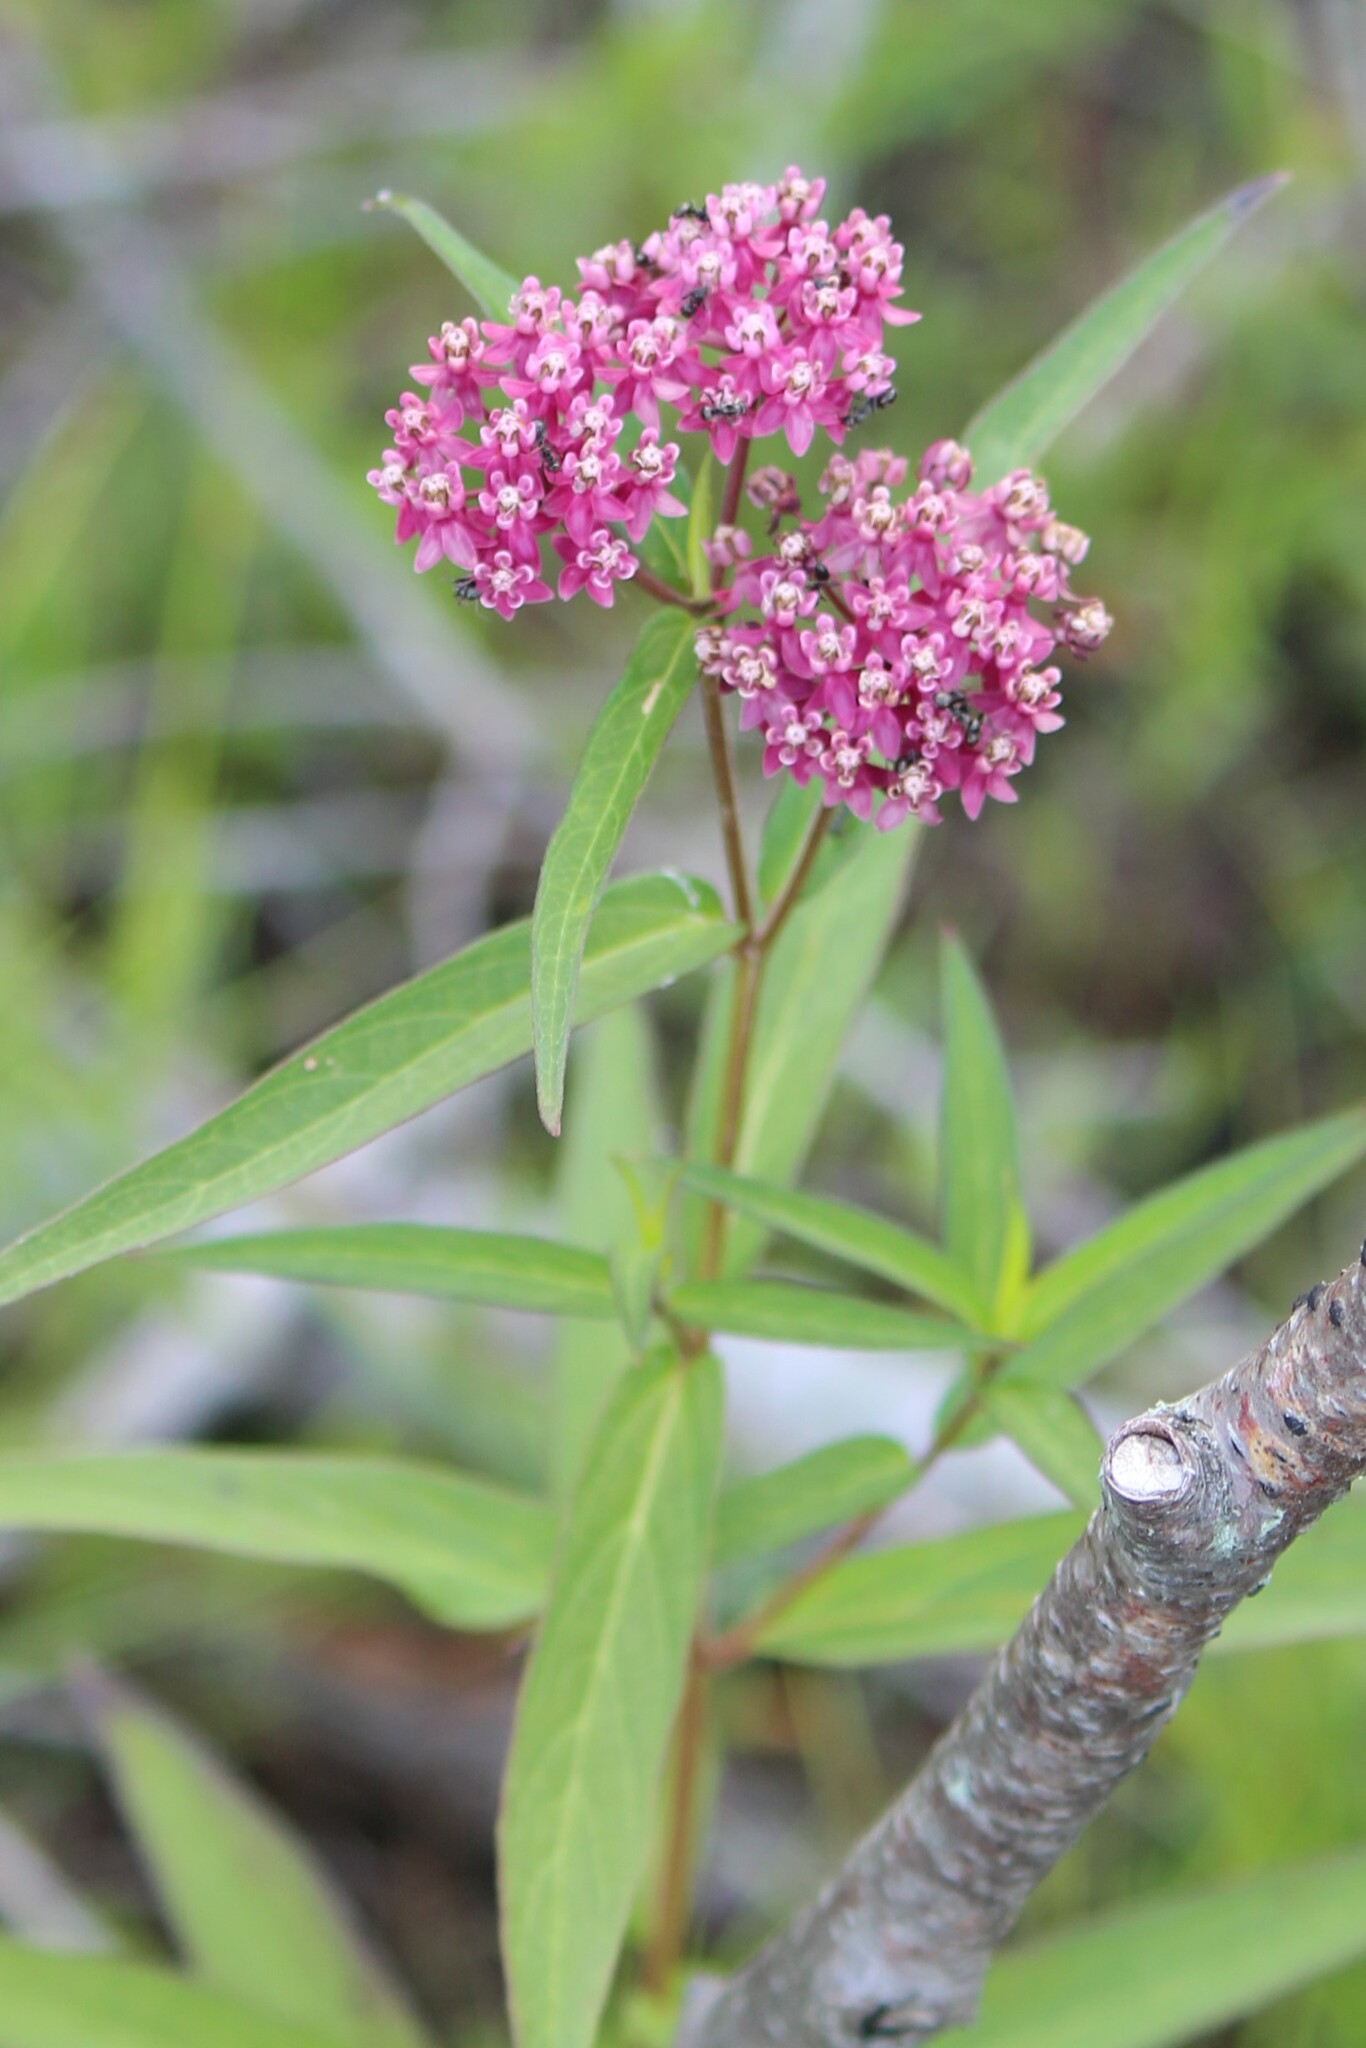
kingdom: Plantae
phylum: Tracheophyta
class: Magnoliopsida
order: Gentianales
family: Apocynaceae
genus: Asclepias
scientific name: Asclepias incarnata
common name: Swamp milkweed
